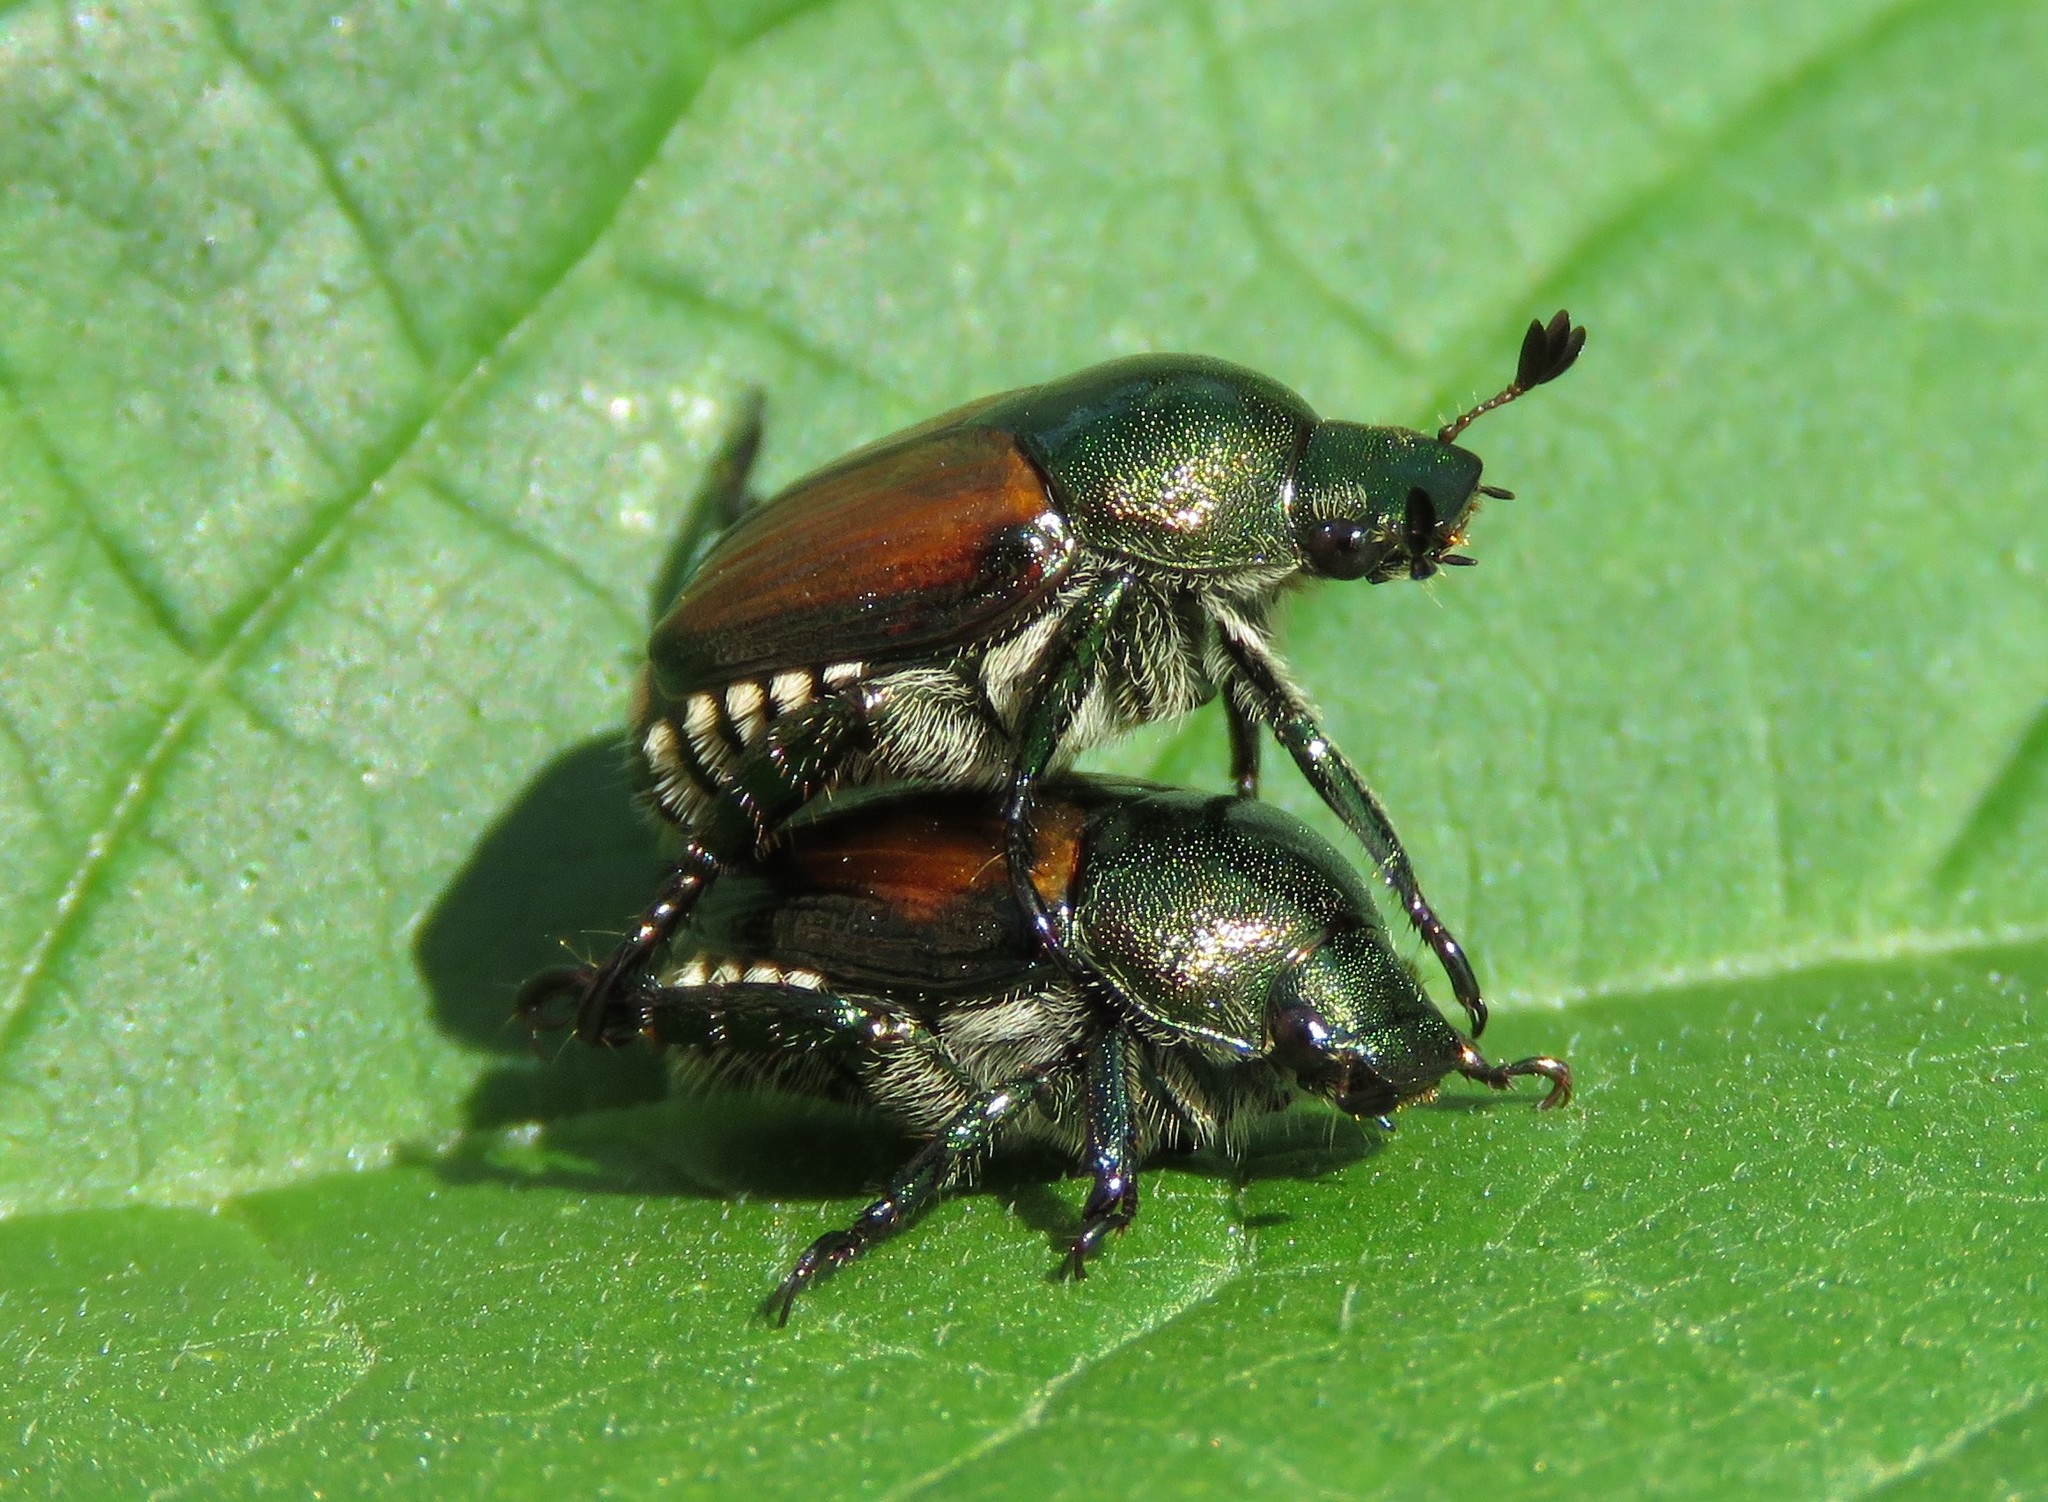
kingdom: Animalia
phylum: Arthropoda
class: Insecta
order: Coleoptera
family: Scarabaeidae
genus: Popillia
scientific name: Popillia japonica
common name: Japanese beetle
